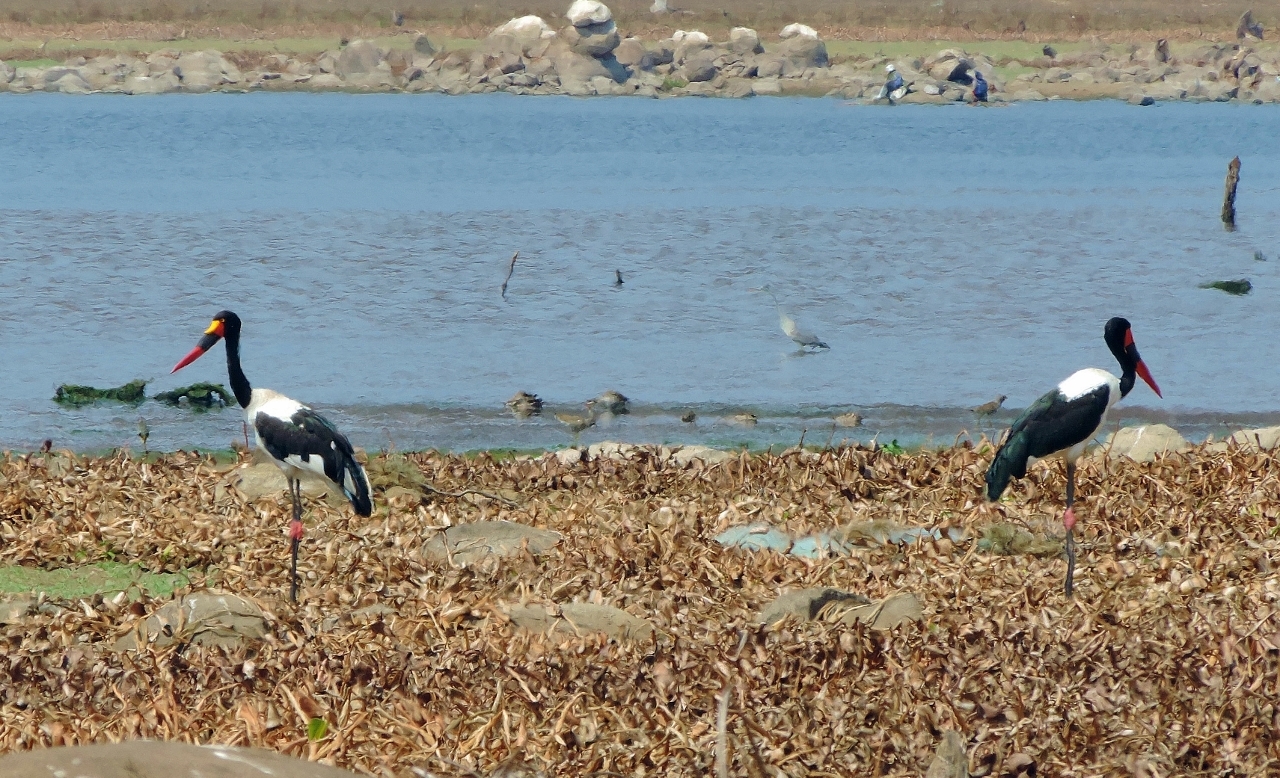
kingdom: Animalia
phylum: Chordata
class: Aves
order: Ciconiiformes
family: Ciconiidae
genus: Ephippiorhynchus
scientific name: Ephippiorhynchus senegalensis
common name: Saddle-billed stork
